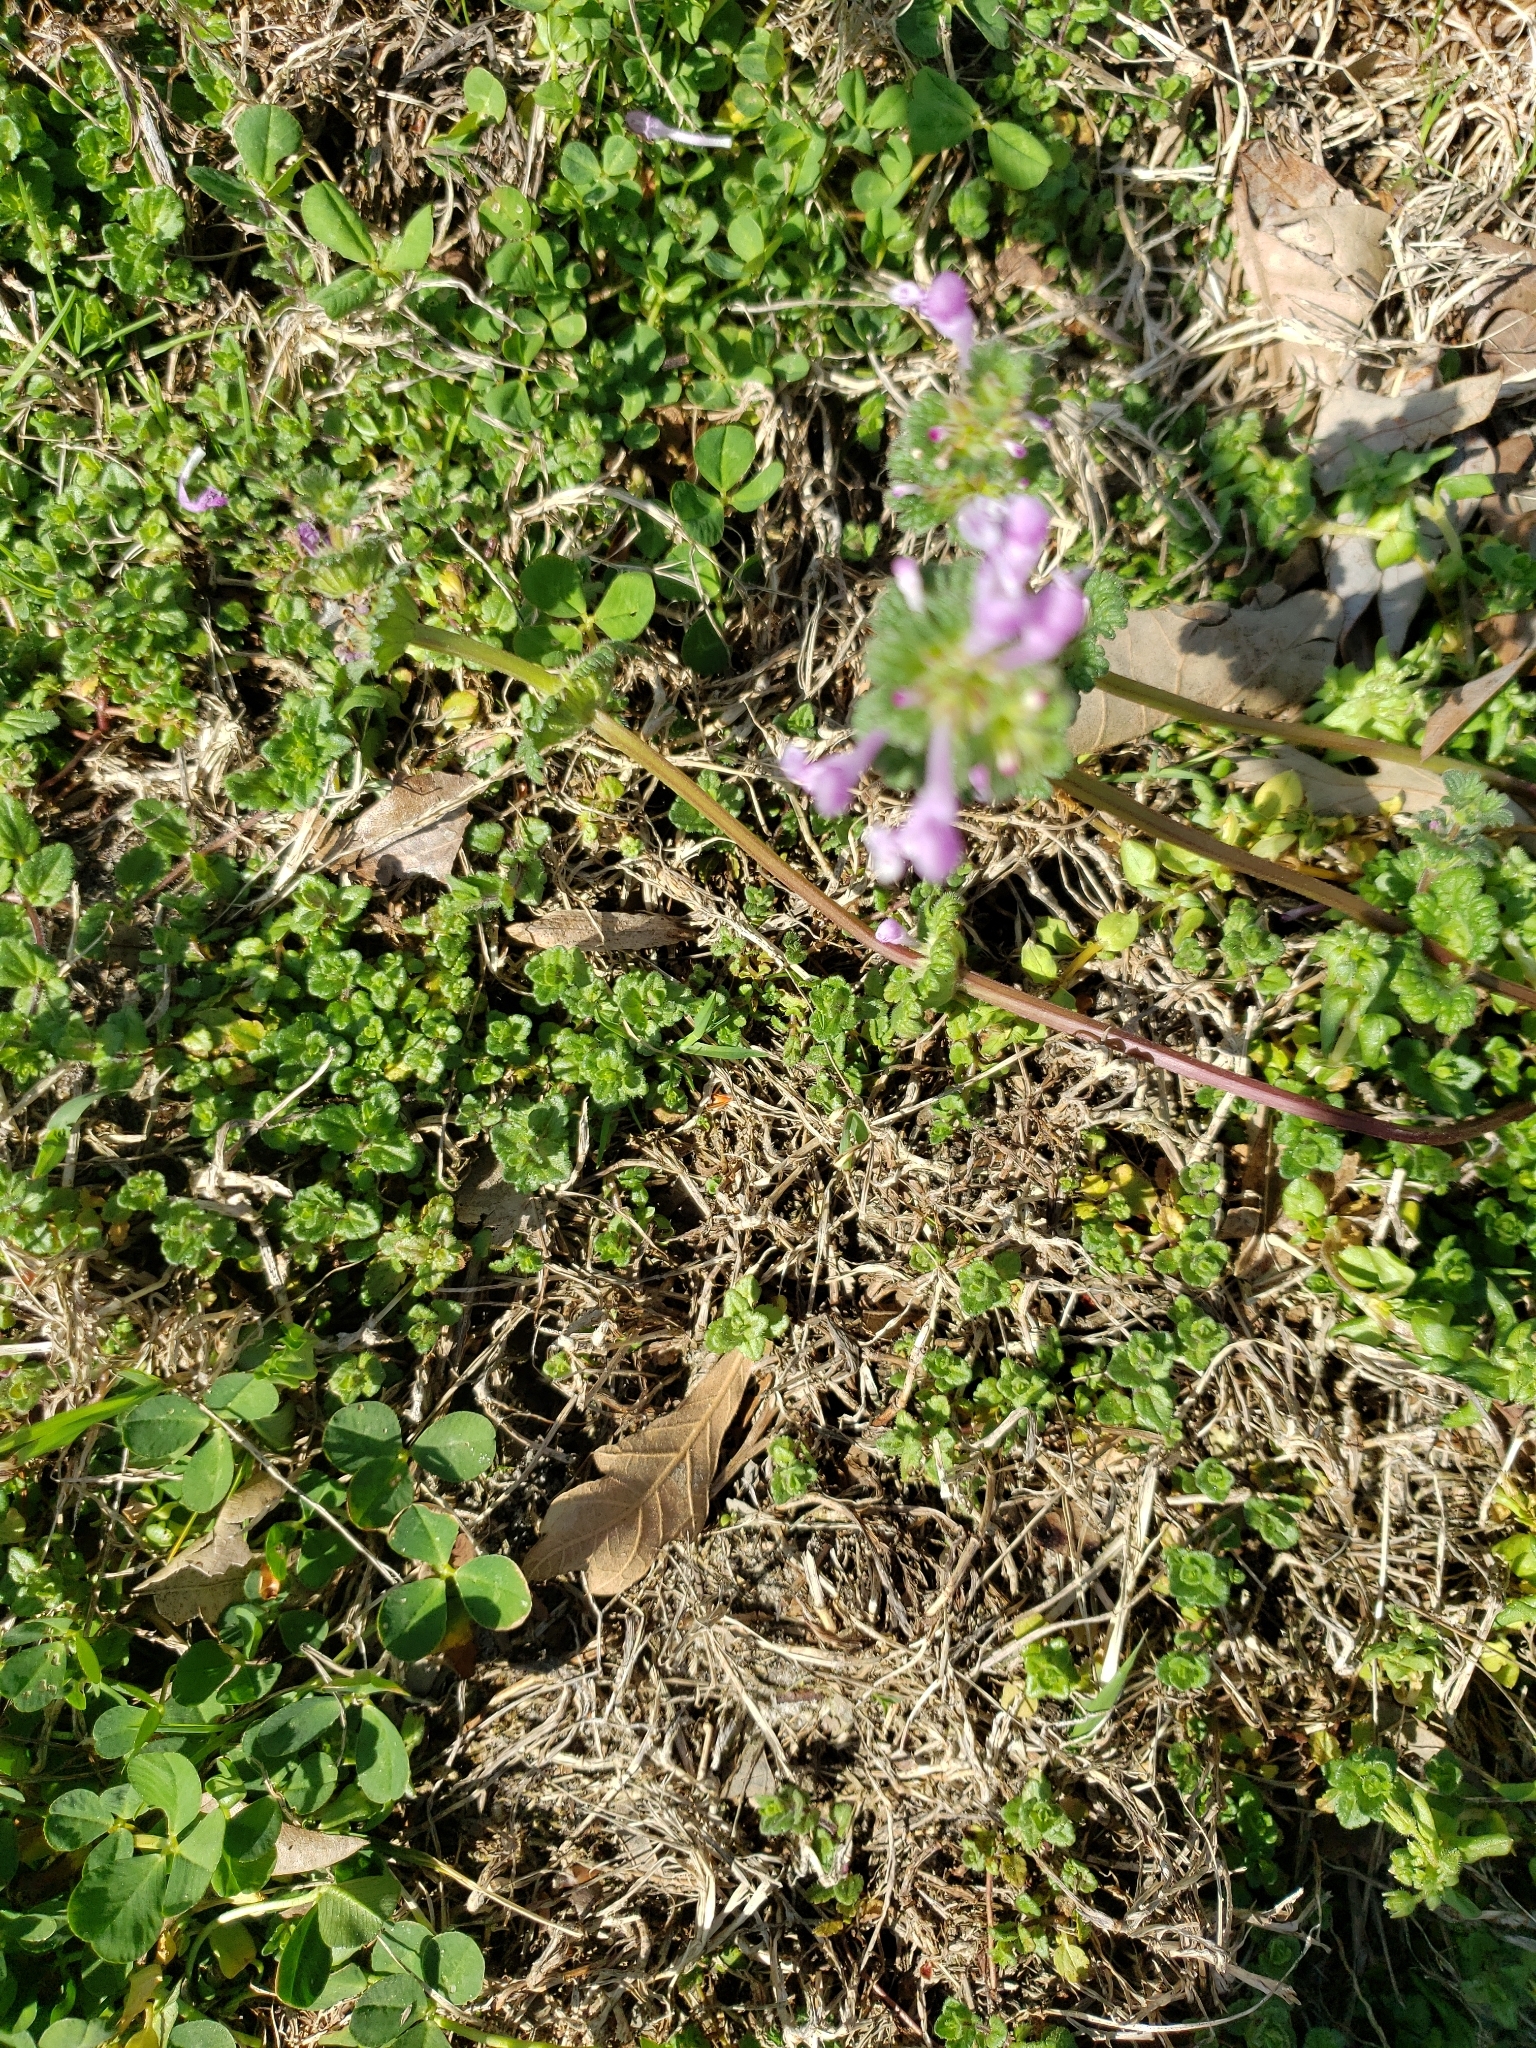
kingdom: Plantae
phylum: Tracheophyta
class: Magnoliopsida
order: Lamiales
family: Lamiaceae
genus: Lamium
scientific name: Lamium amplexicaule
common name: Henbit dead-nettle
